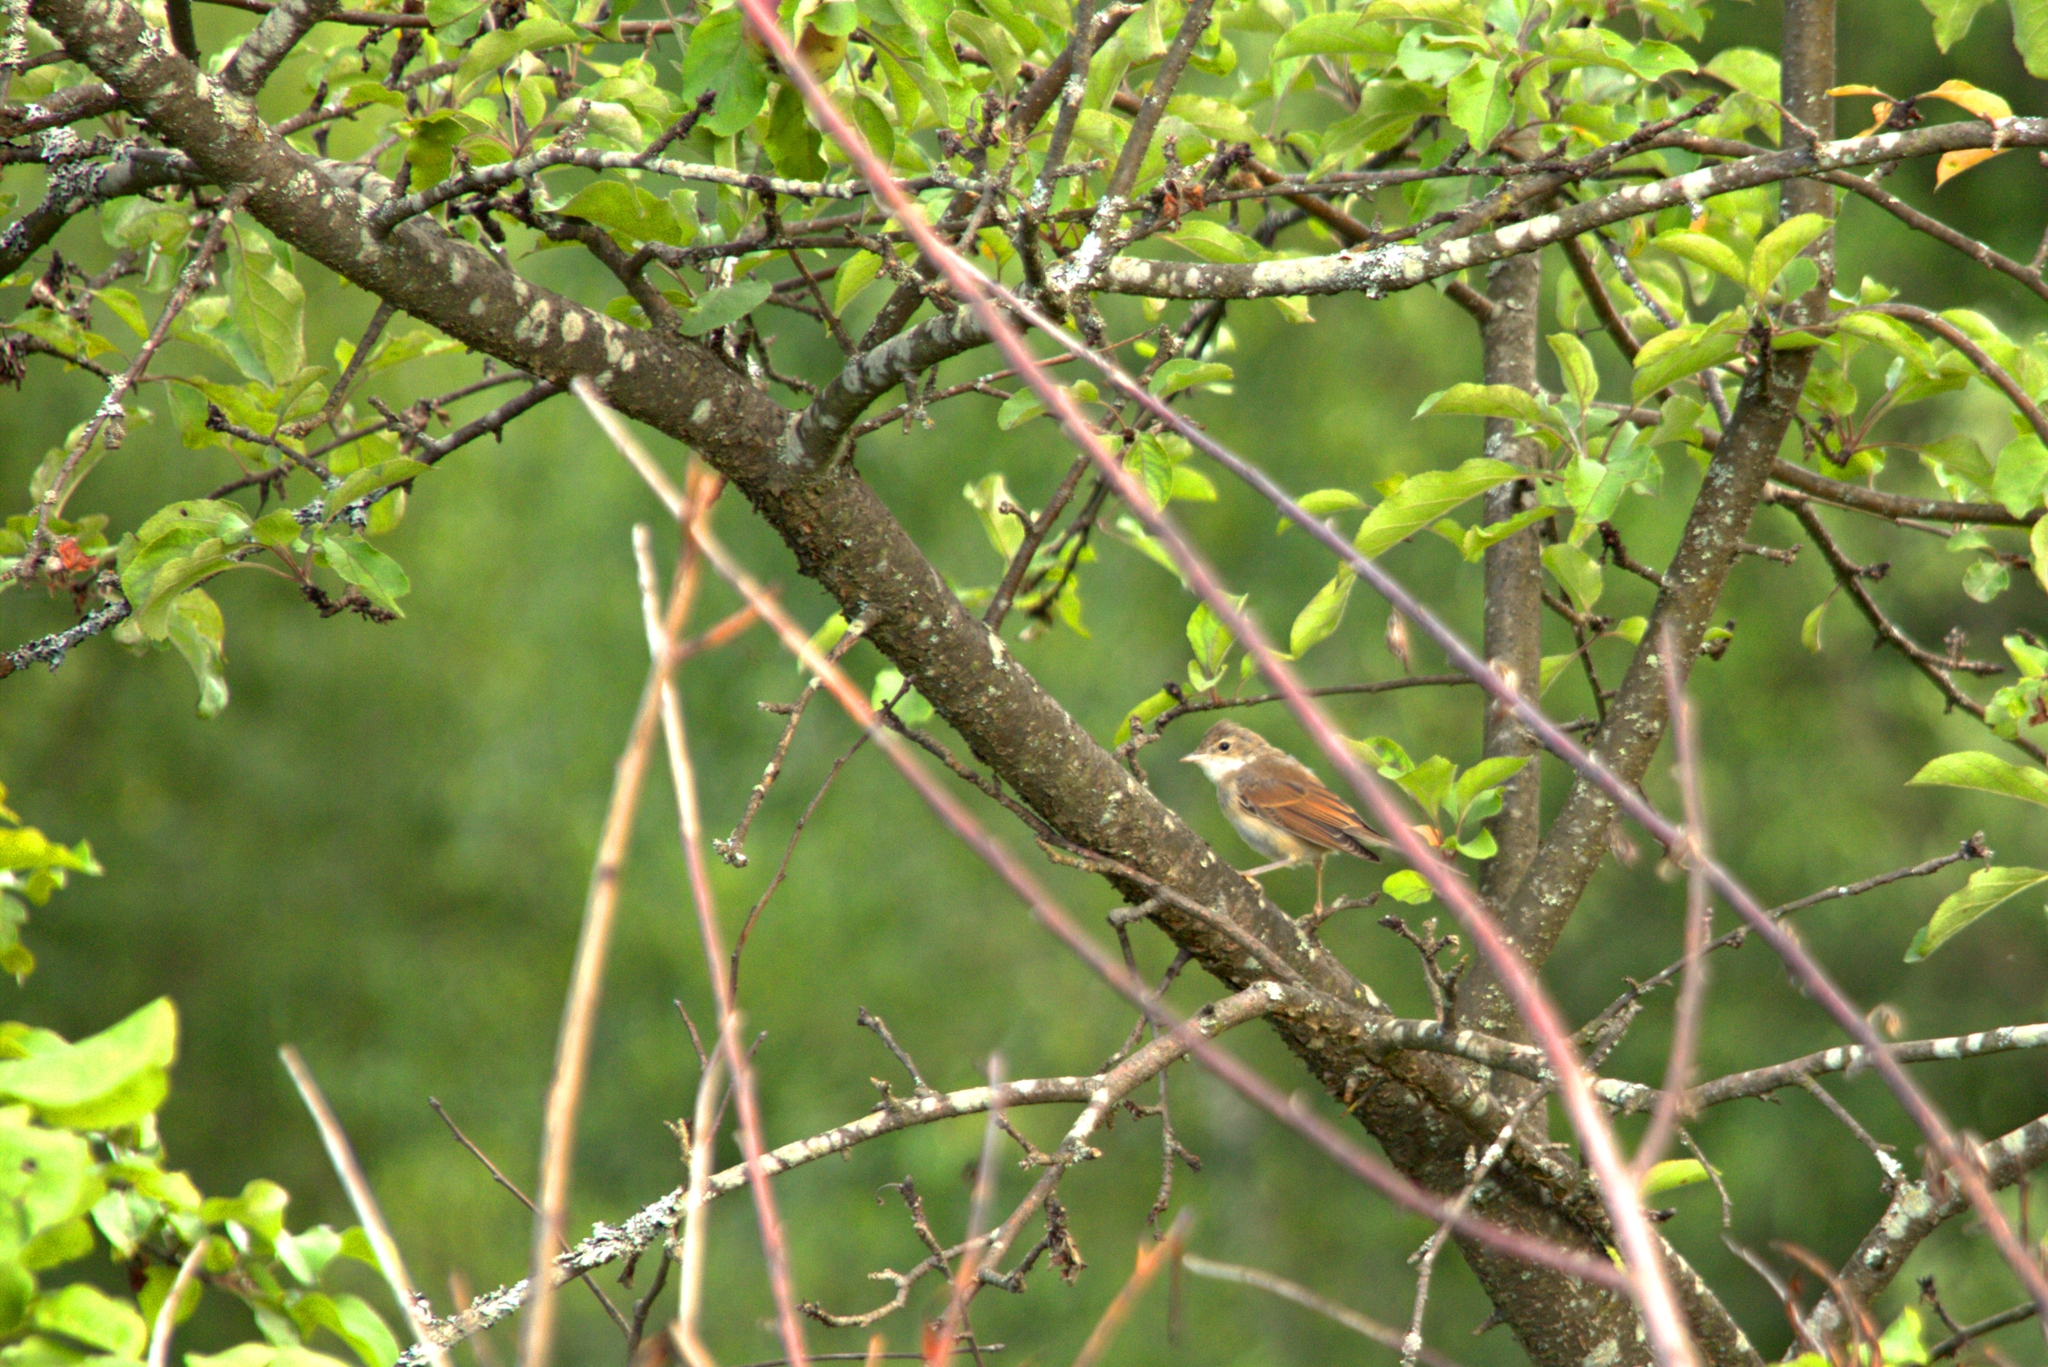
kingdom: Animalia
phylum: Chordata
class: Aves
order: Passeriformes
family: Sylviidae
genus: Sylvia
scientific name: Sylvia communis
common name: Common whitethroat
